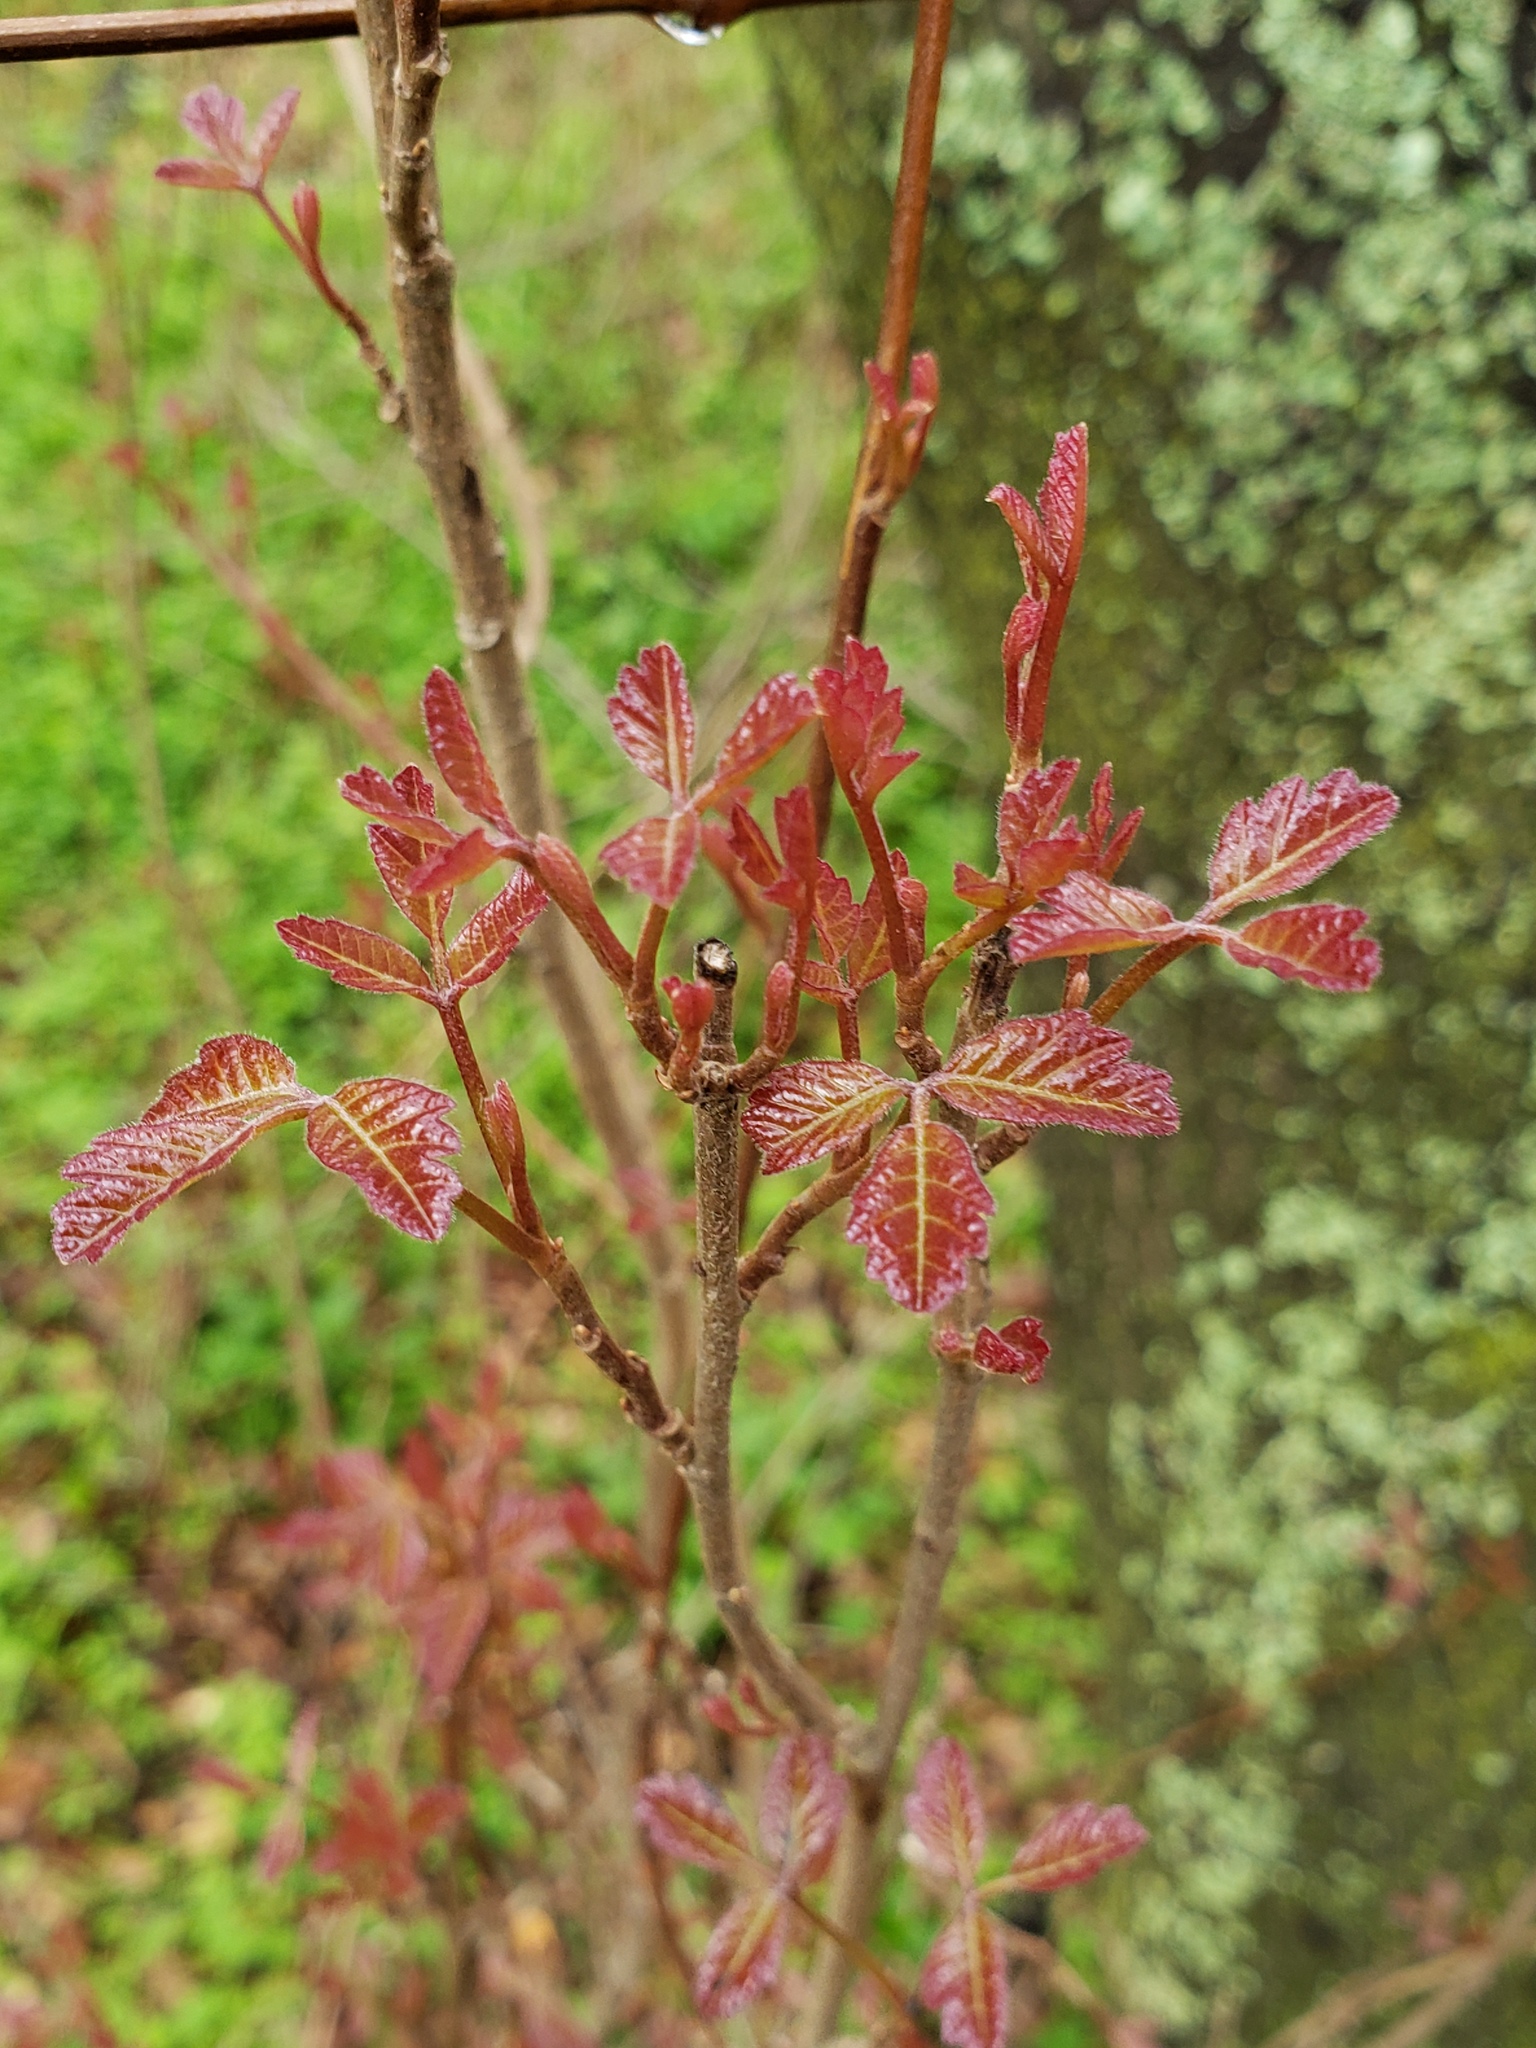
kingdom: Plantae
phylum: Tracheophyta
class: Magnoliopsida
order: Sapindales
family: Anacardiaceae
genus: Toxicodendron
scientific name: Toxicodendron diversilobum
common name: Pacific poison-oak
